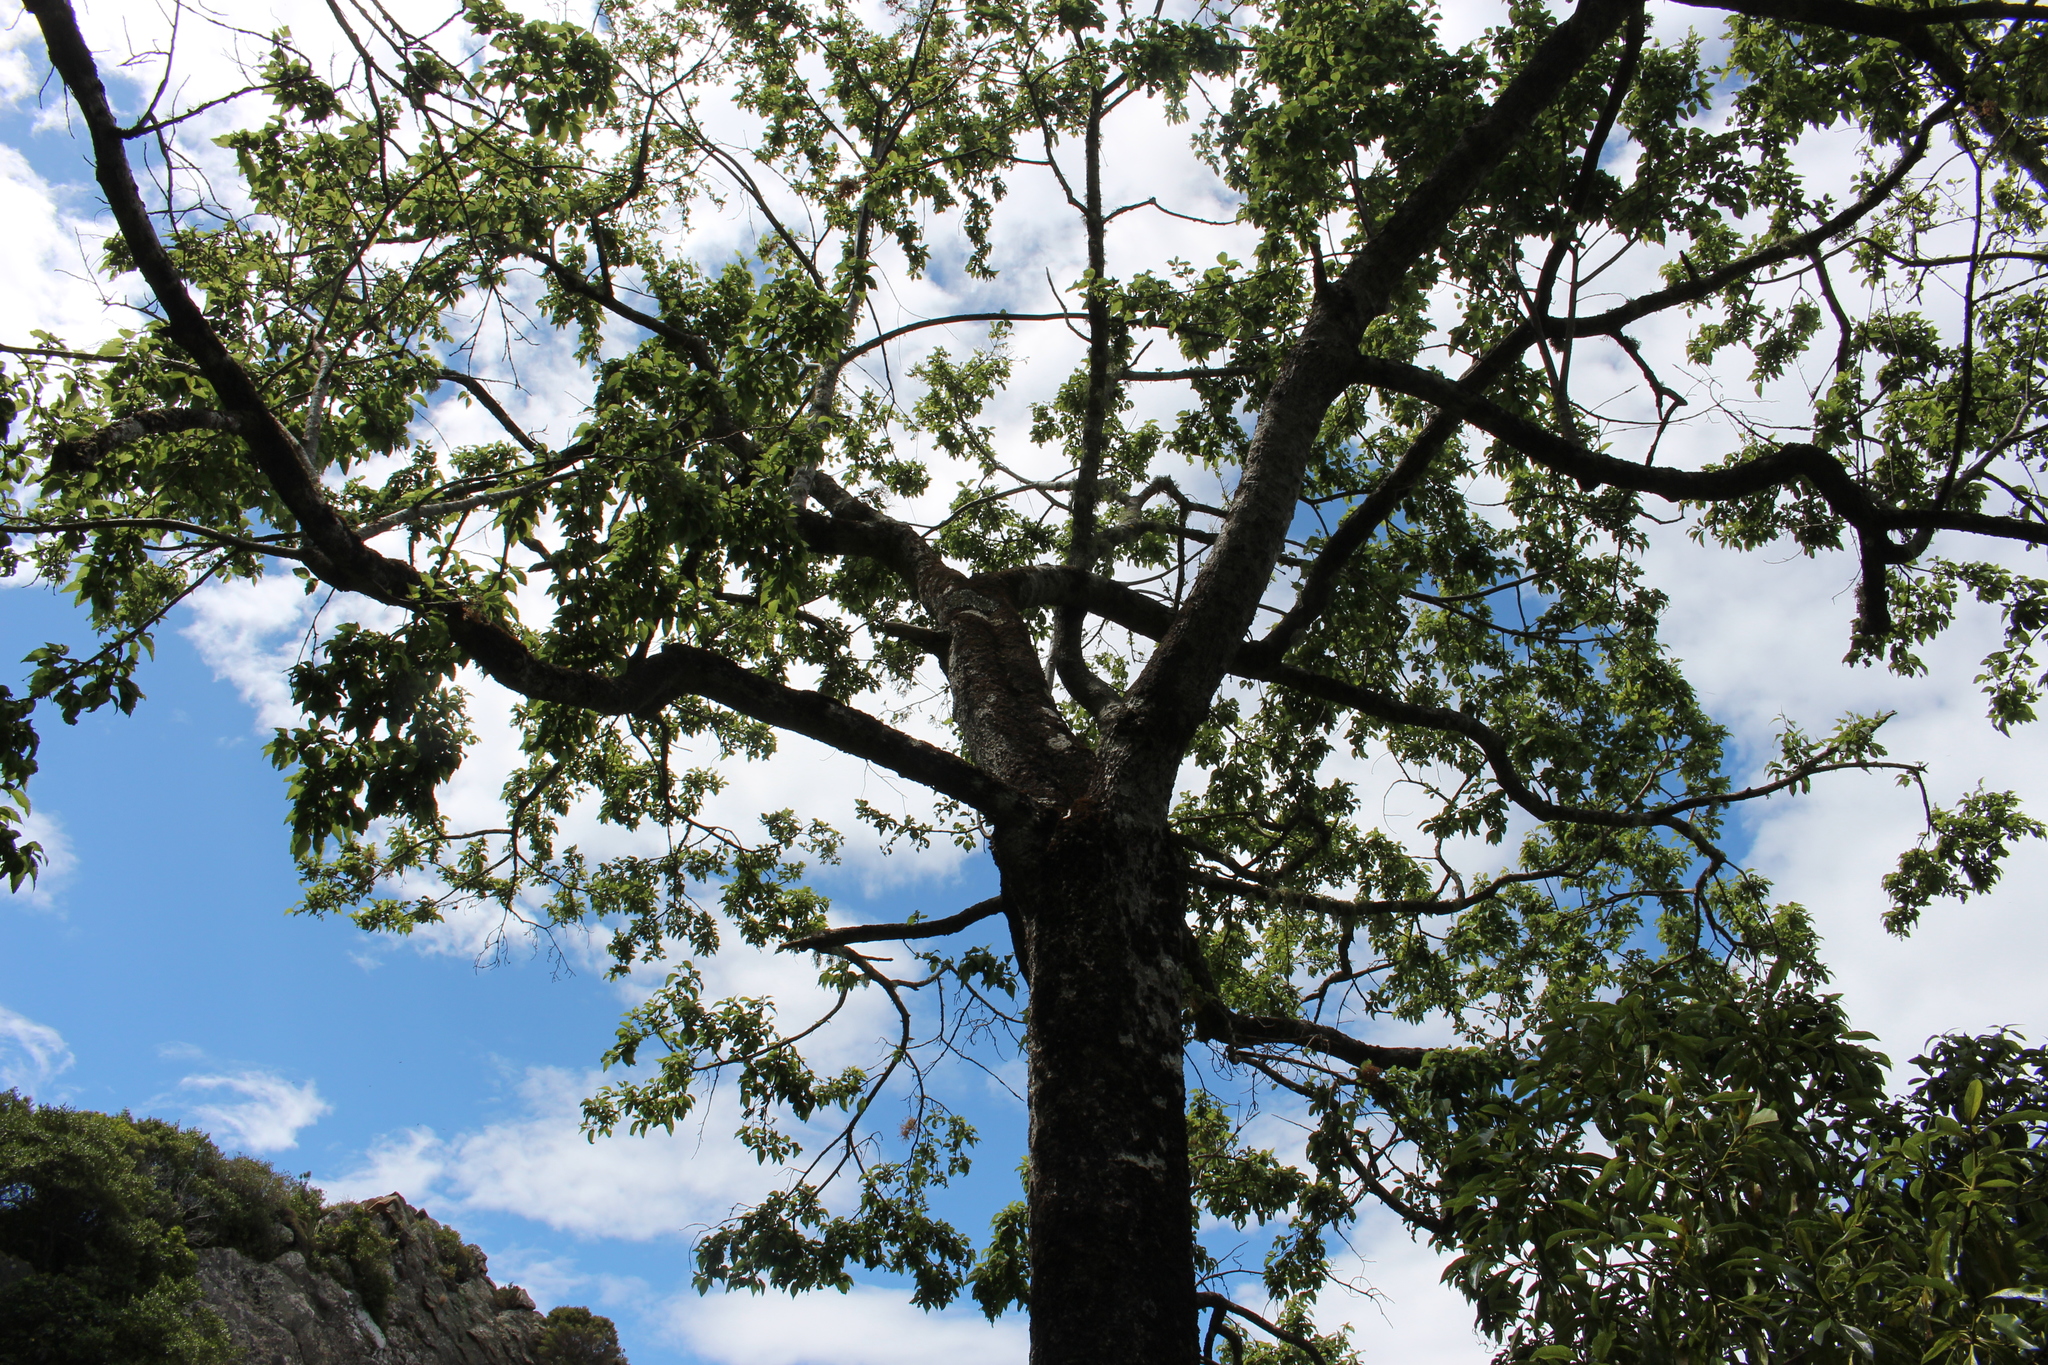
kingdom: Plantae
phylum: Tracheophyta
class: Magnoliopsida
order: Malvales
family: Malvaceae
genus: Plagianthus
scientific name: Plagianthus regius
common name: Manatu
